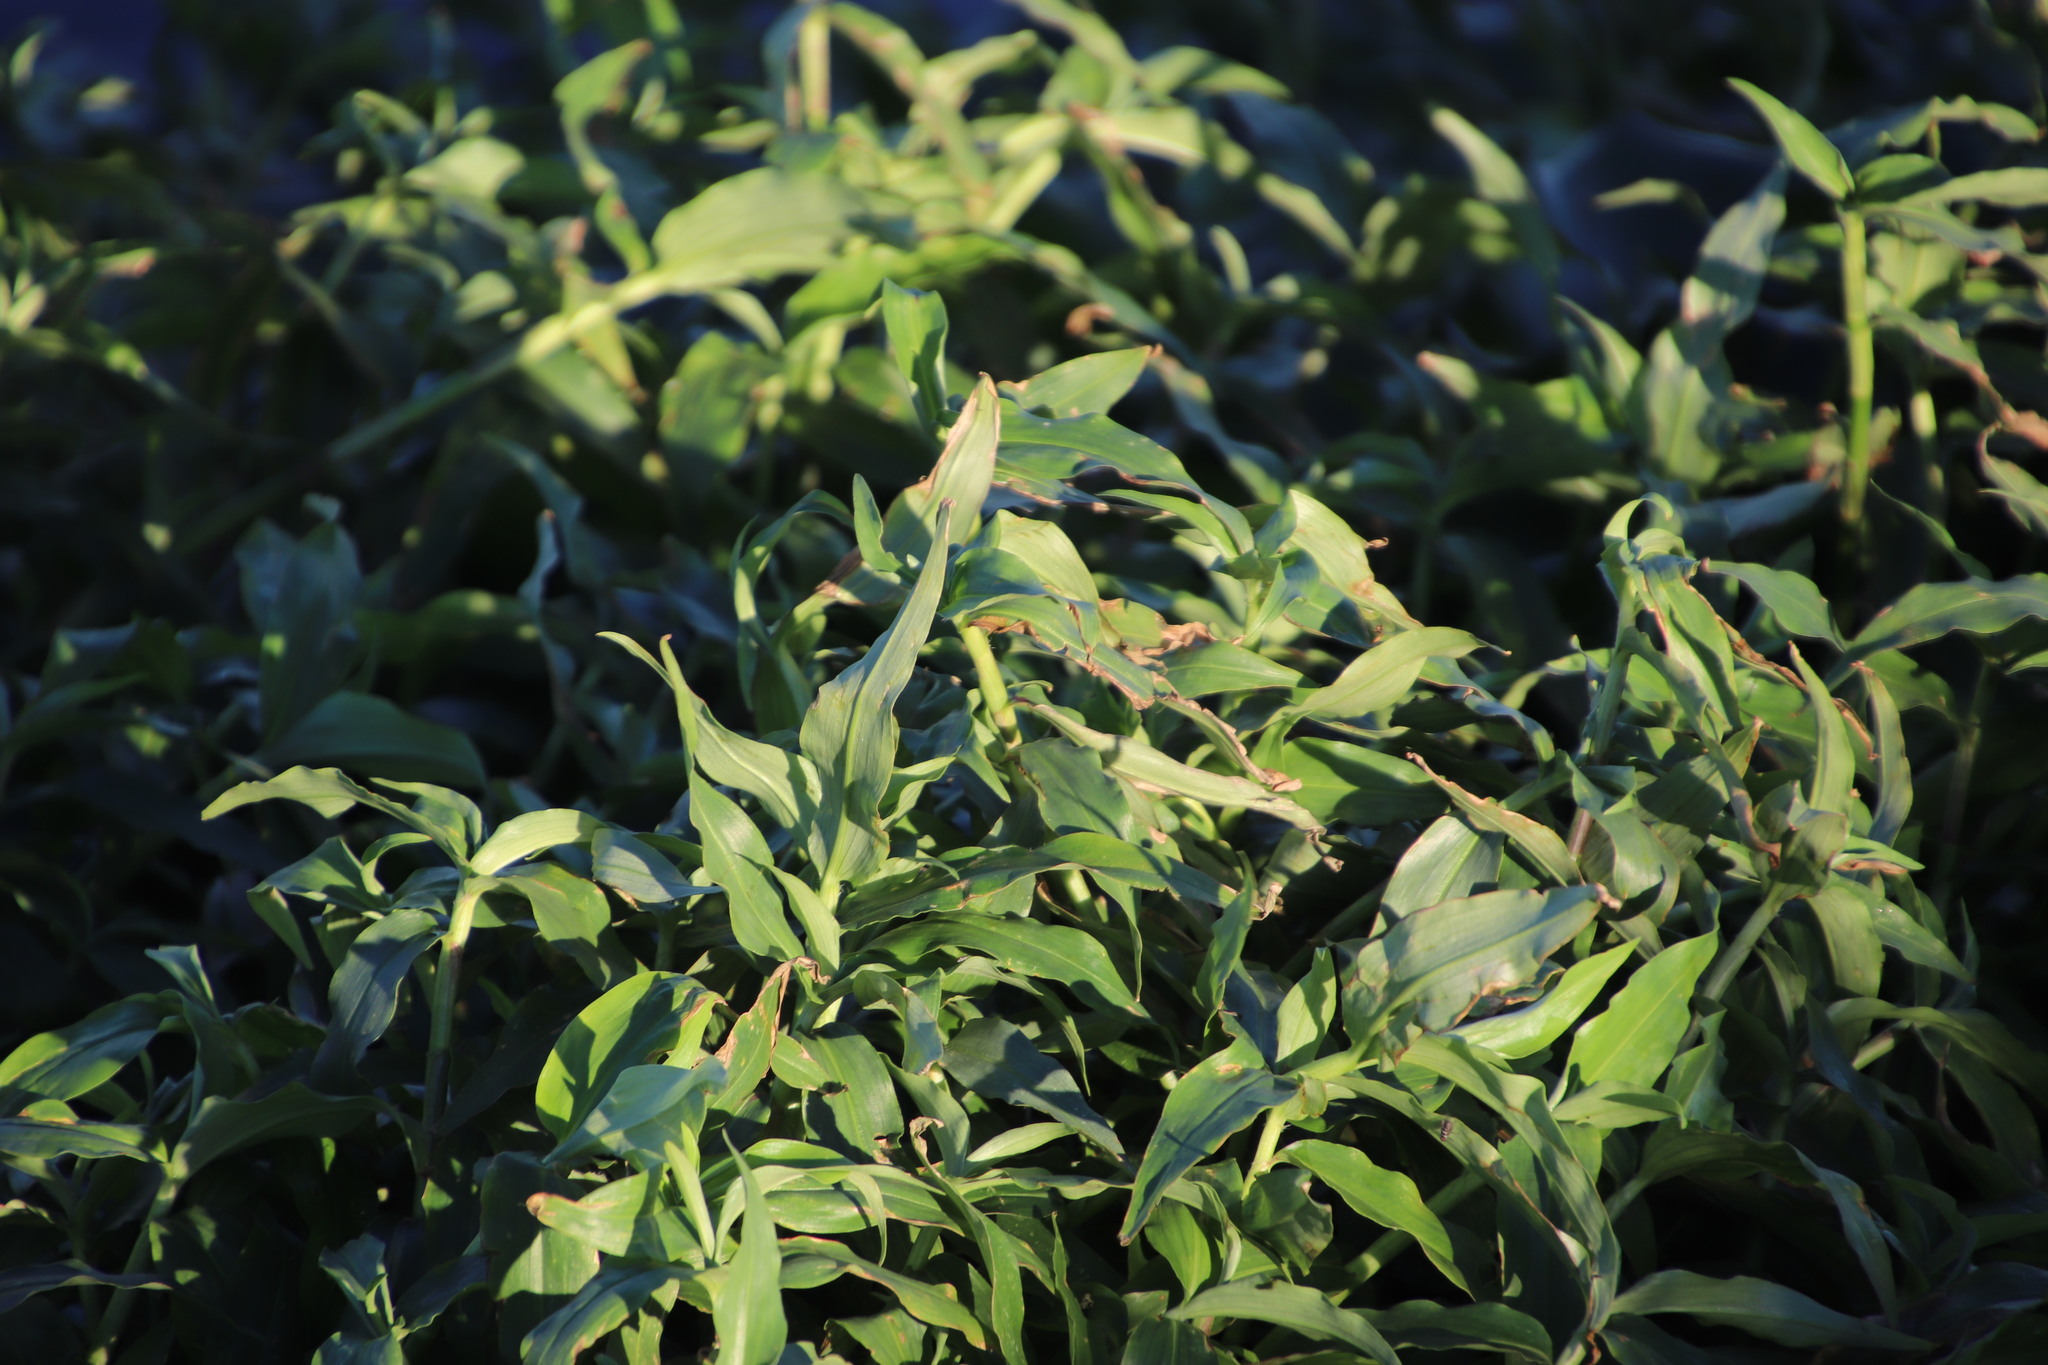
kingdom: Plantae
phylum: Tracheophyta
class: Liliopsida
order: Commelinales
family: Commelinaceae
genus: Commelina
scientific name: Commelina diffusa
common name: Climbing dayflower
